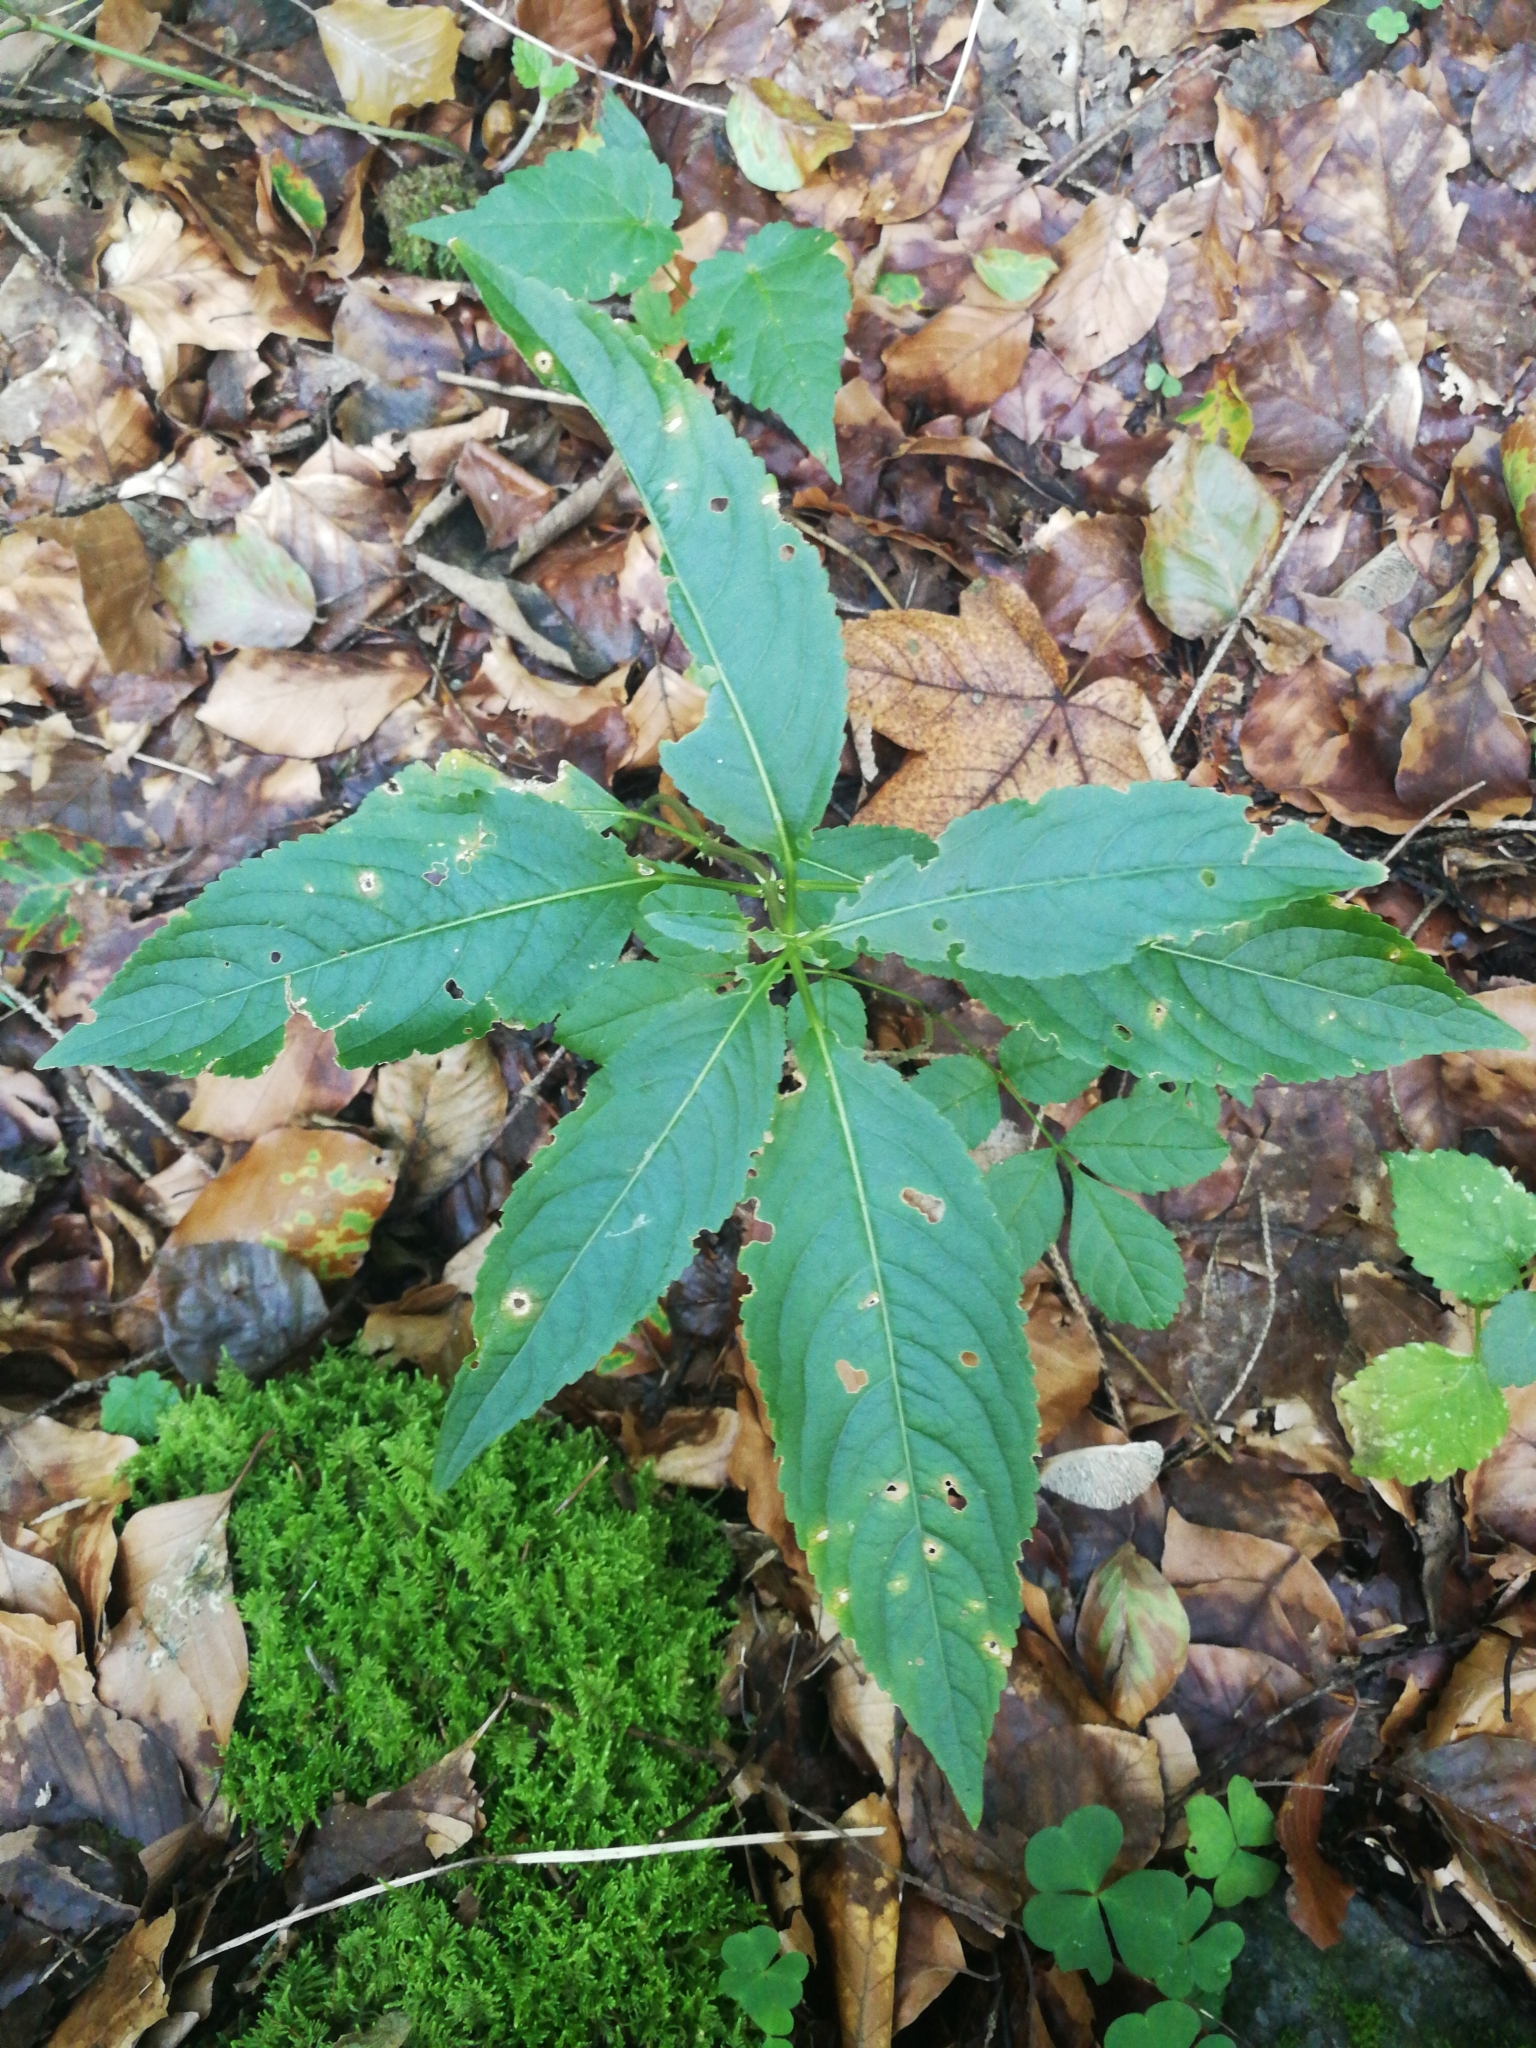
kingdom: Plantae
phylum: Tracheophyta
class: Magnoliopsida
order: Malpighiales
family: Euphorbiaceae
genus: Mercurialis
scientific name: Mercurialis perennis
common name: Dog mercury
